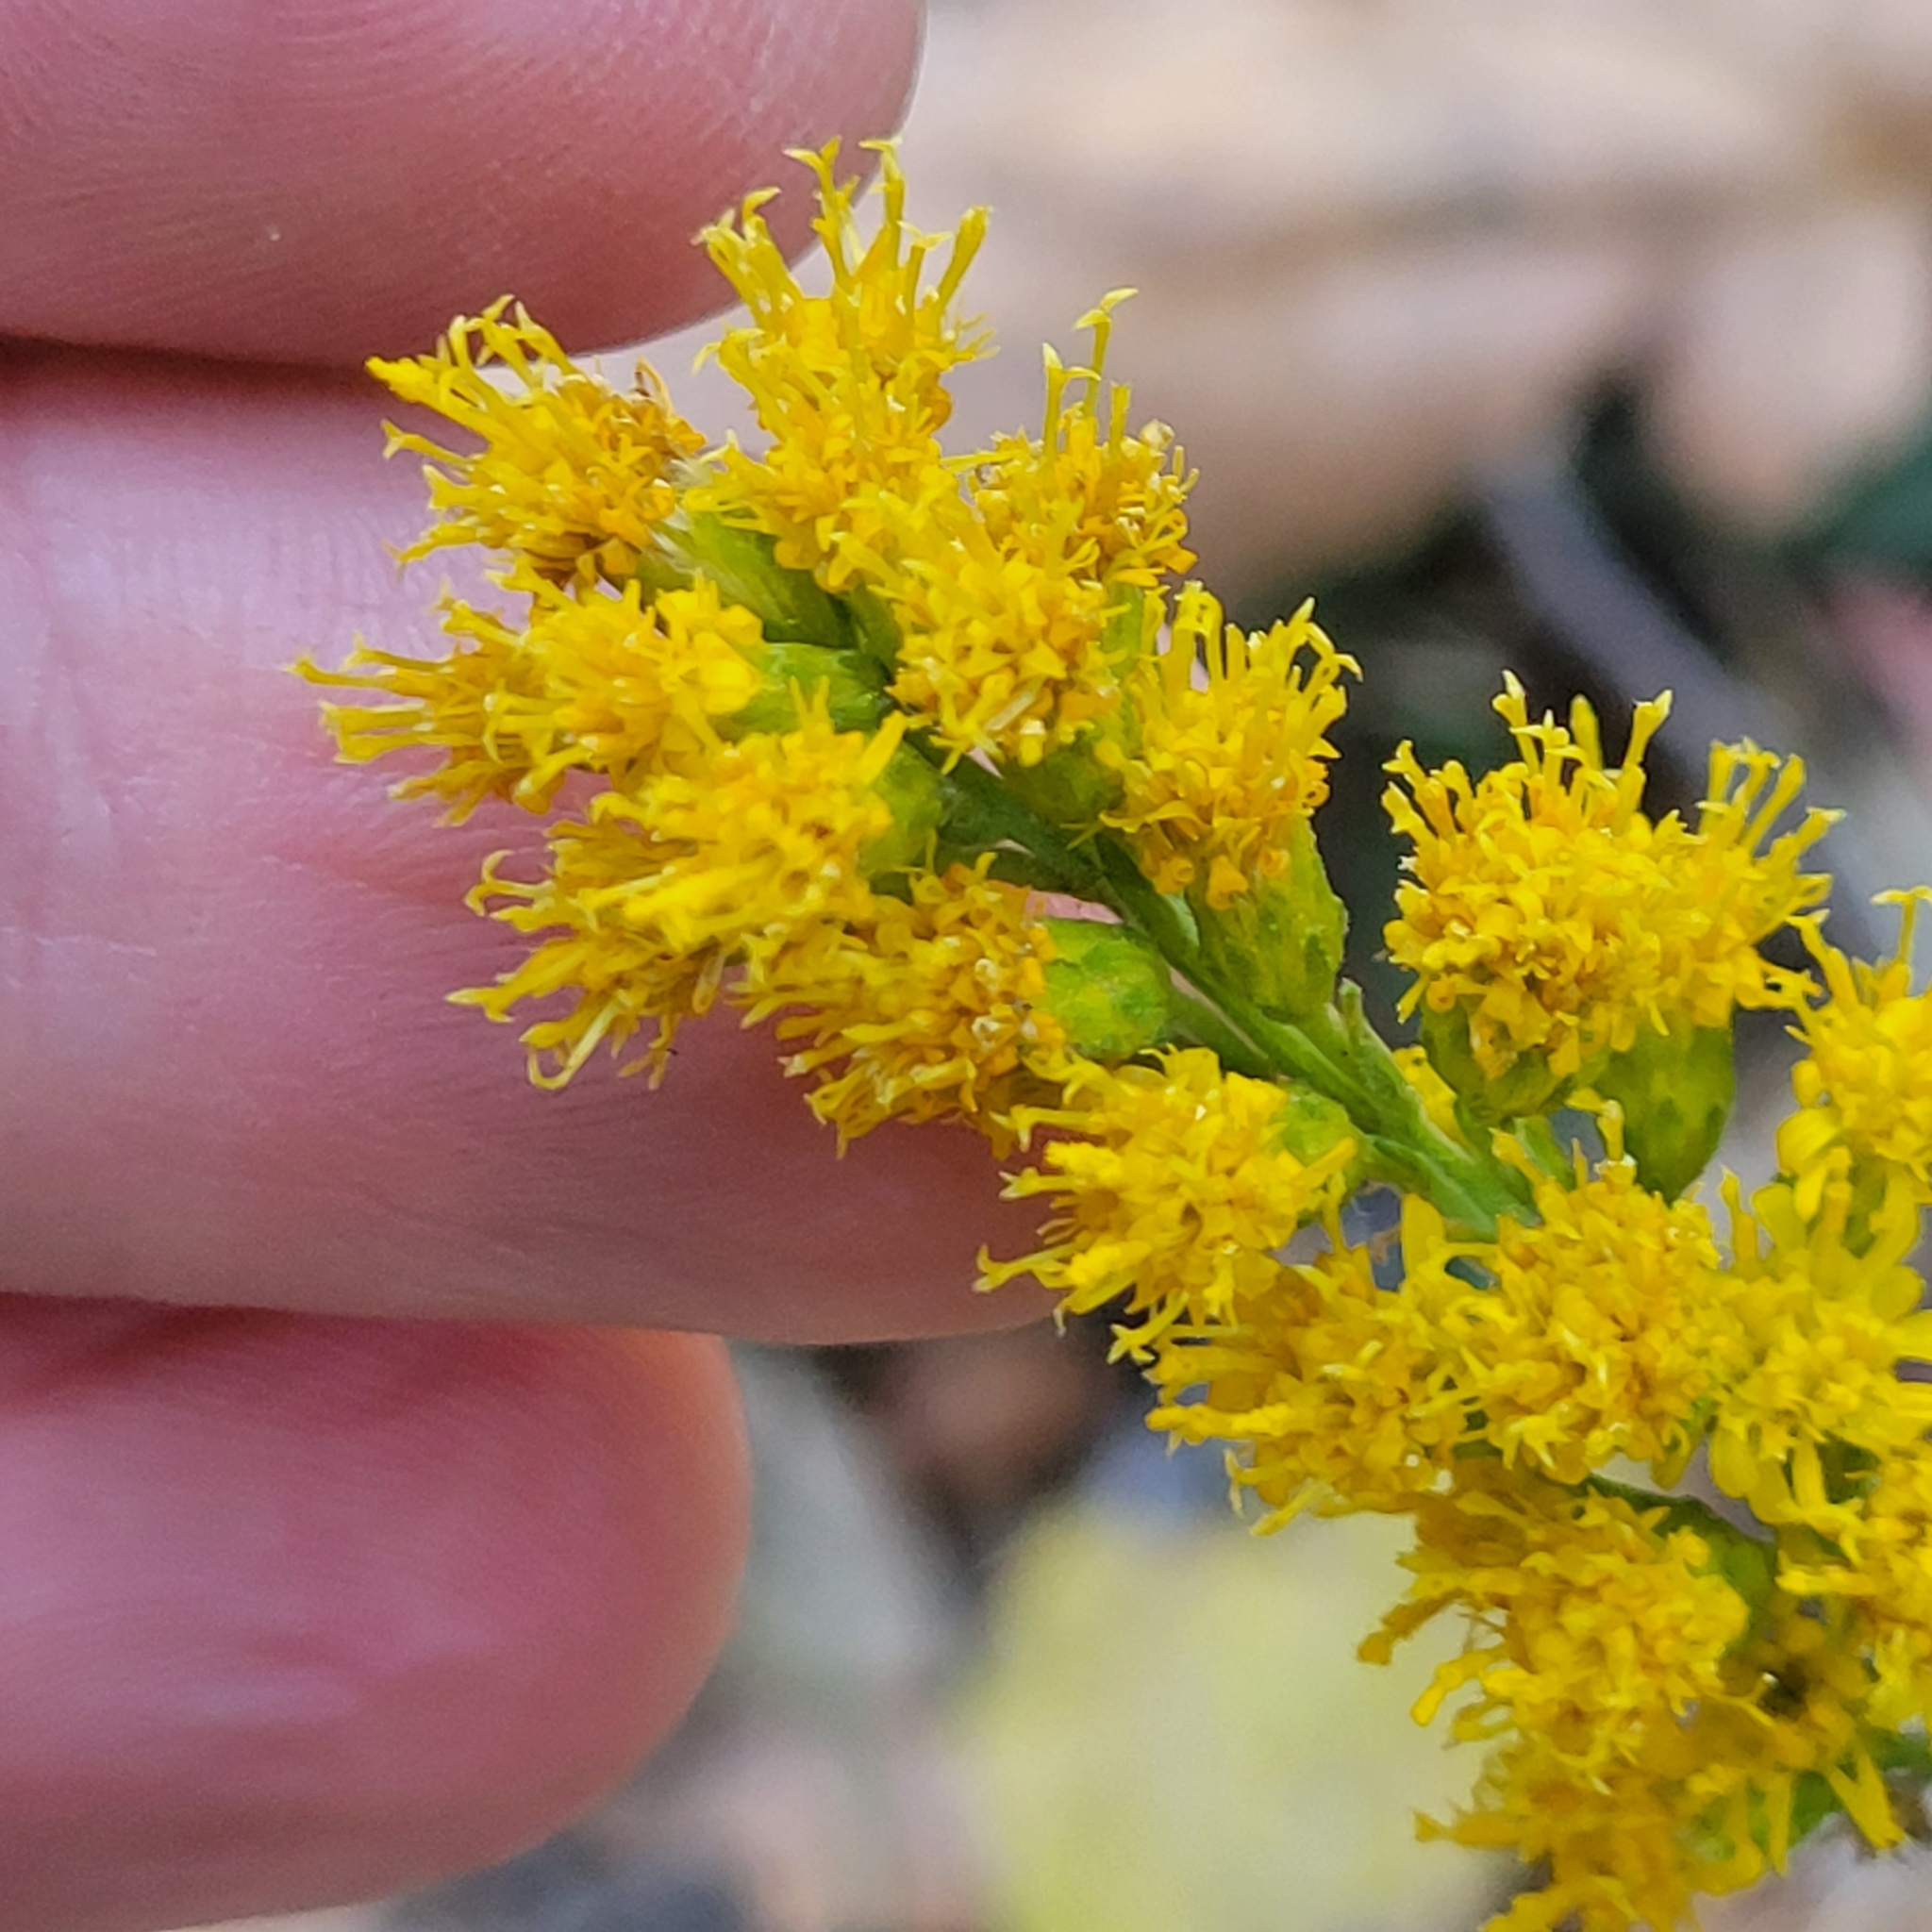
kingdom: Plantae
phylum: Tracheophyta
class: Magnoliopsida
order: Asterales
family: Asteraceae
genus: Solidago
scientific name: Solidago velutina
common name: Three-nerve goldenrod
